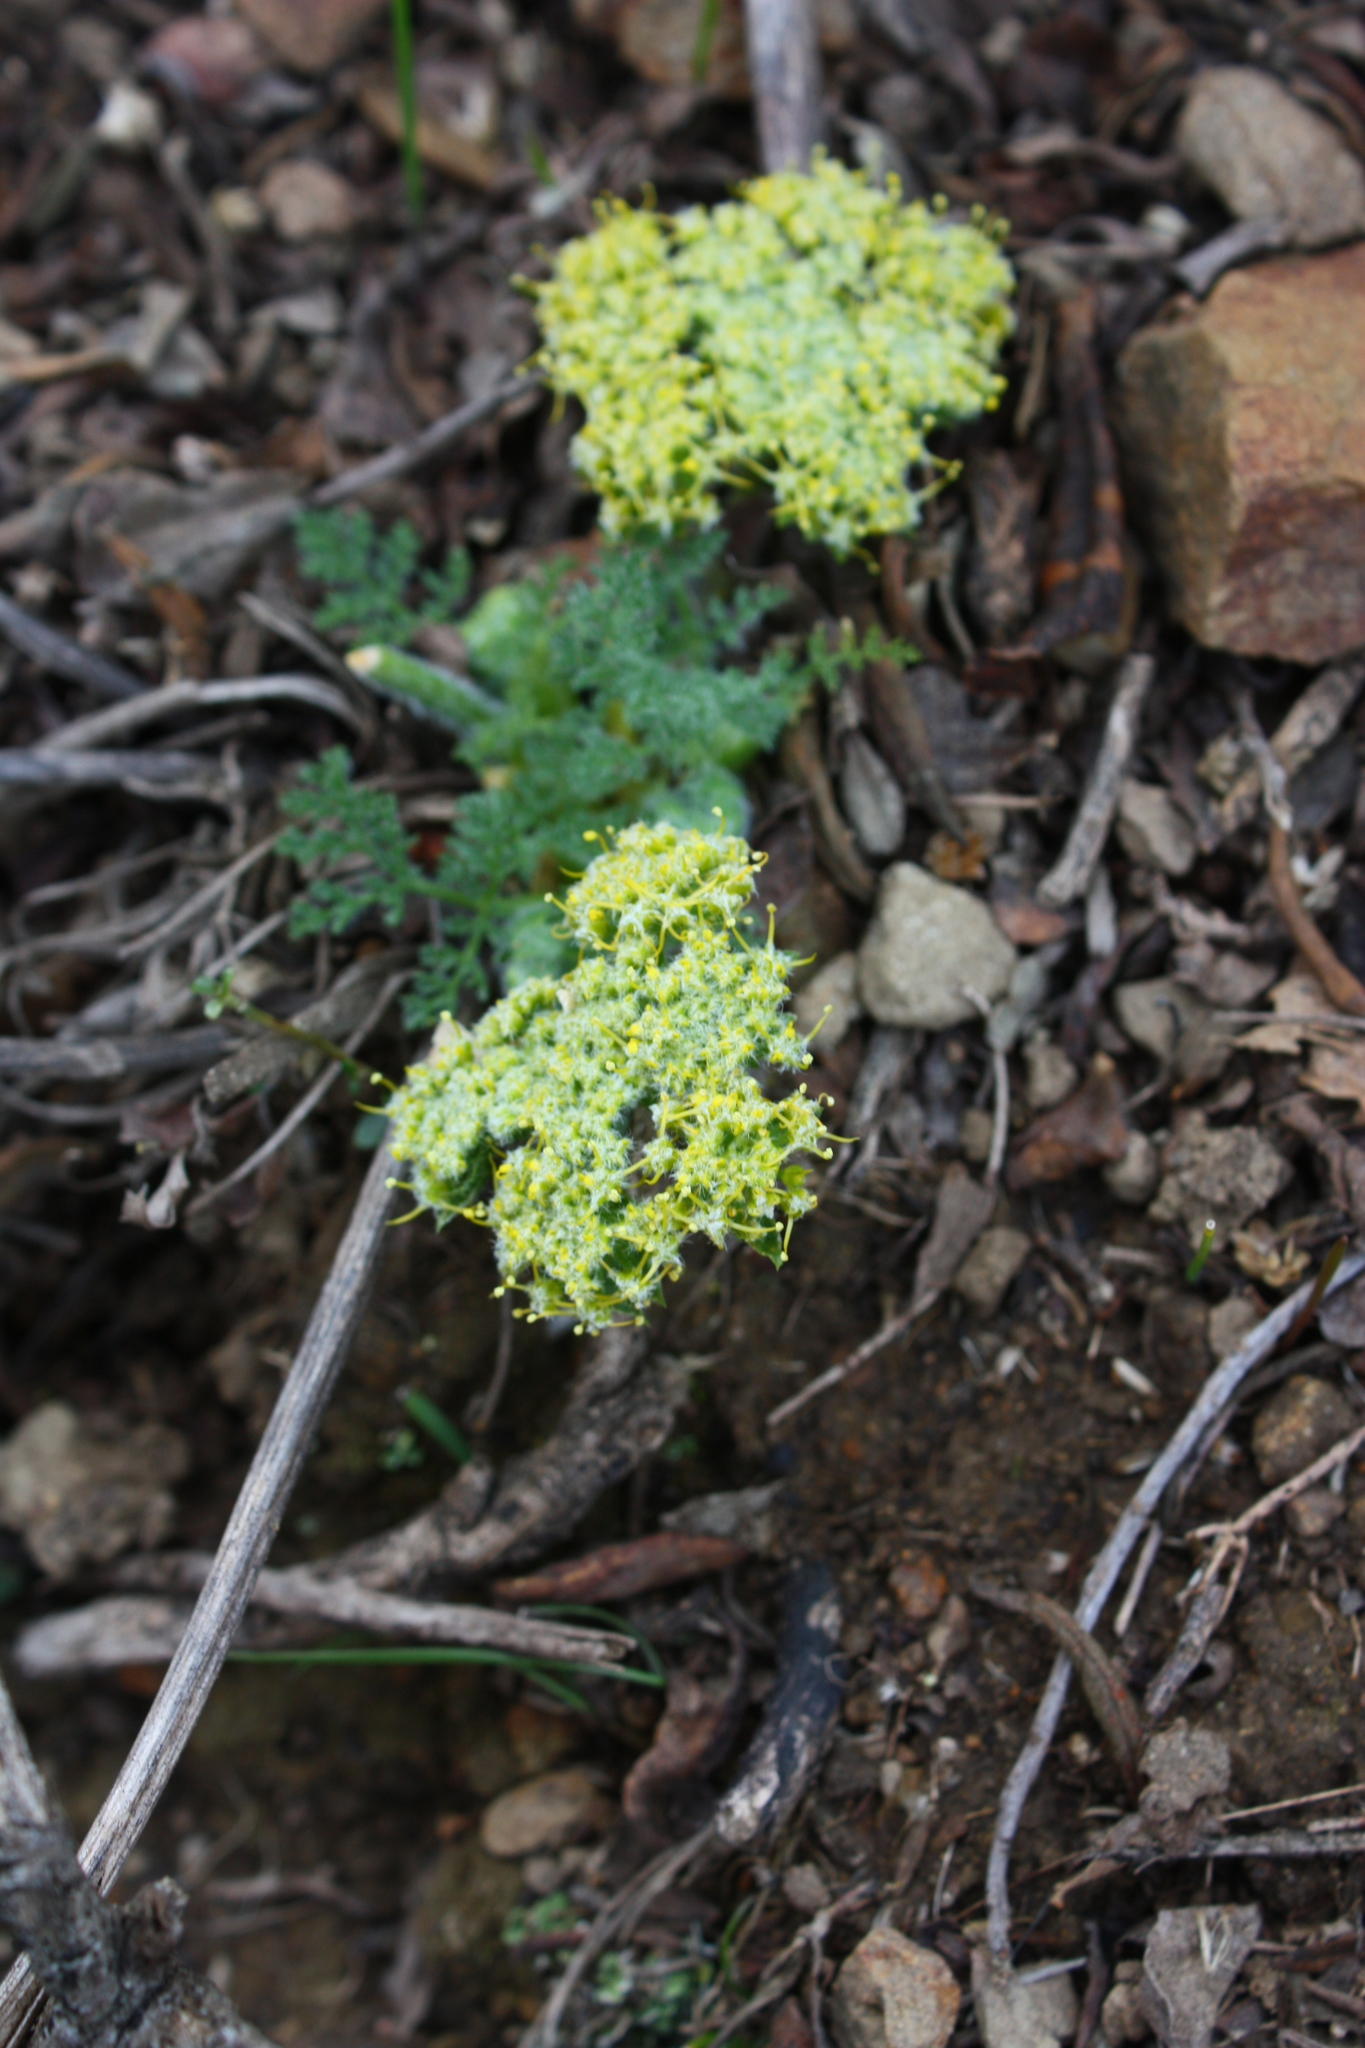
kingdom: Plantae
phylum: Tracheophyta
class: Magnoliopsida
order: Apiales
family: Apiaceae
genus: Lomatium
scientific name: Lomatium dasycarpum
